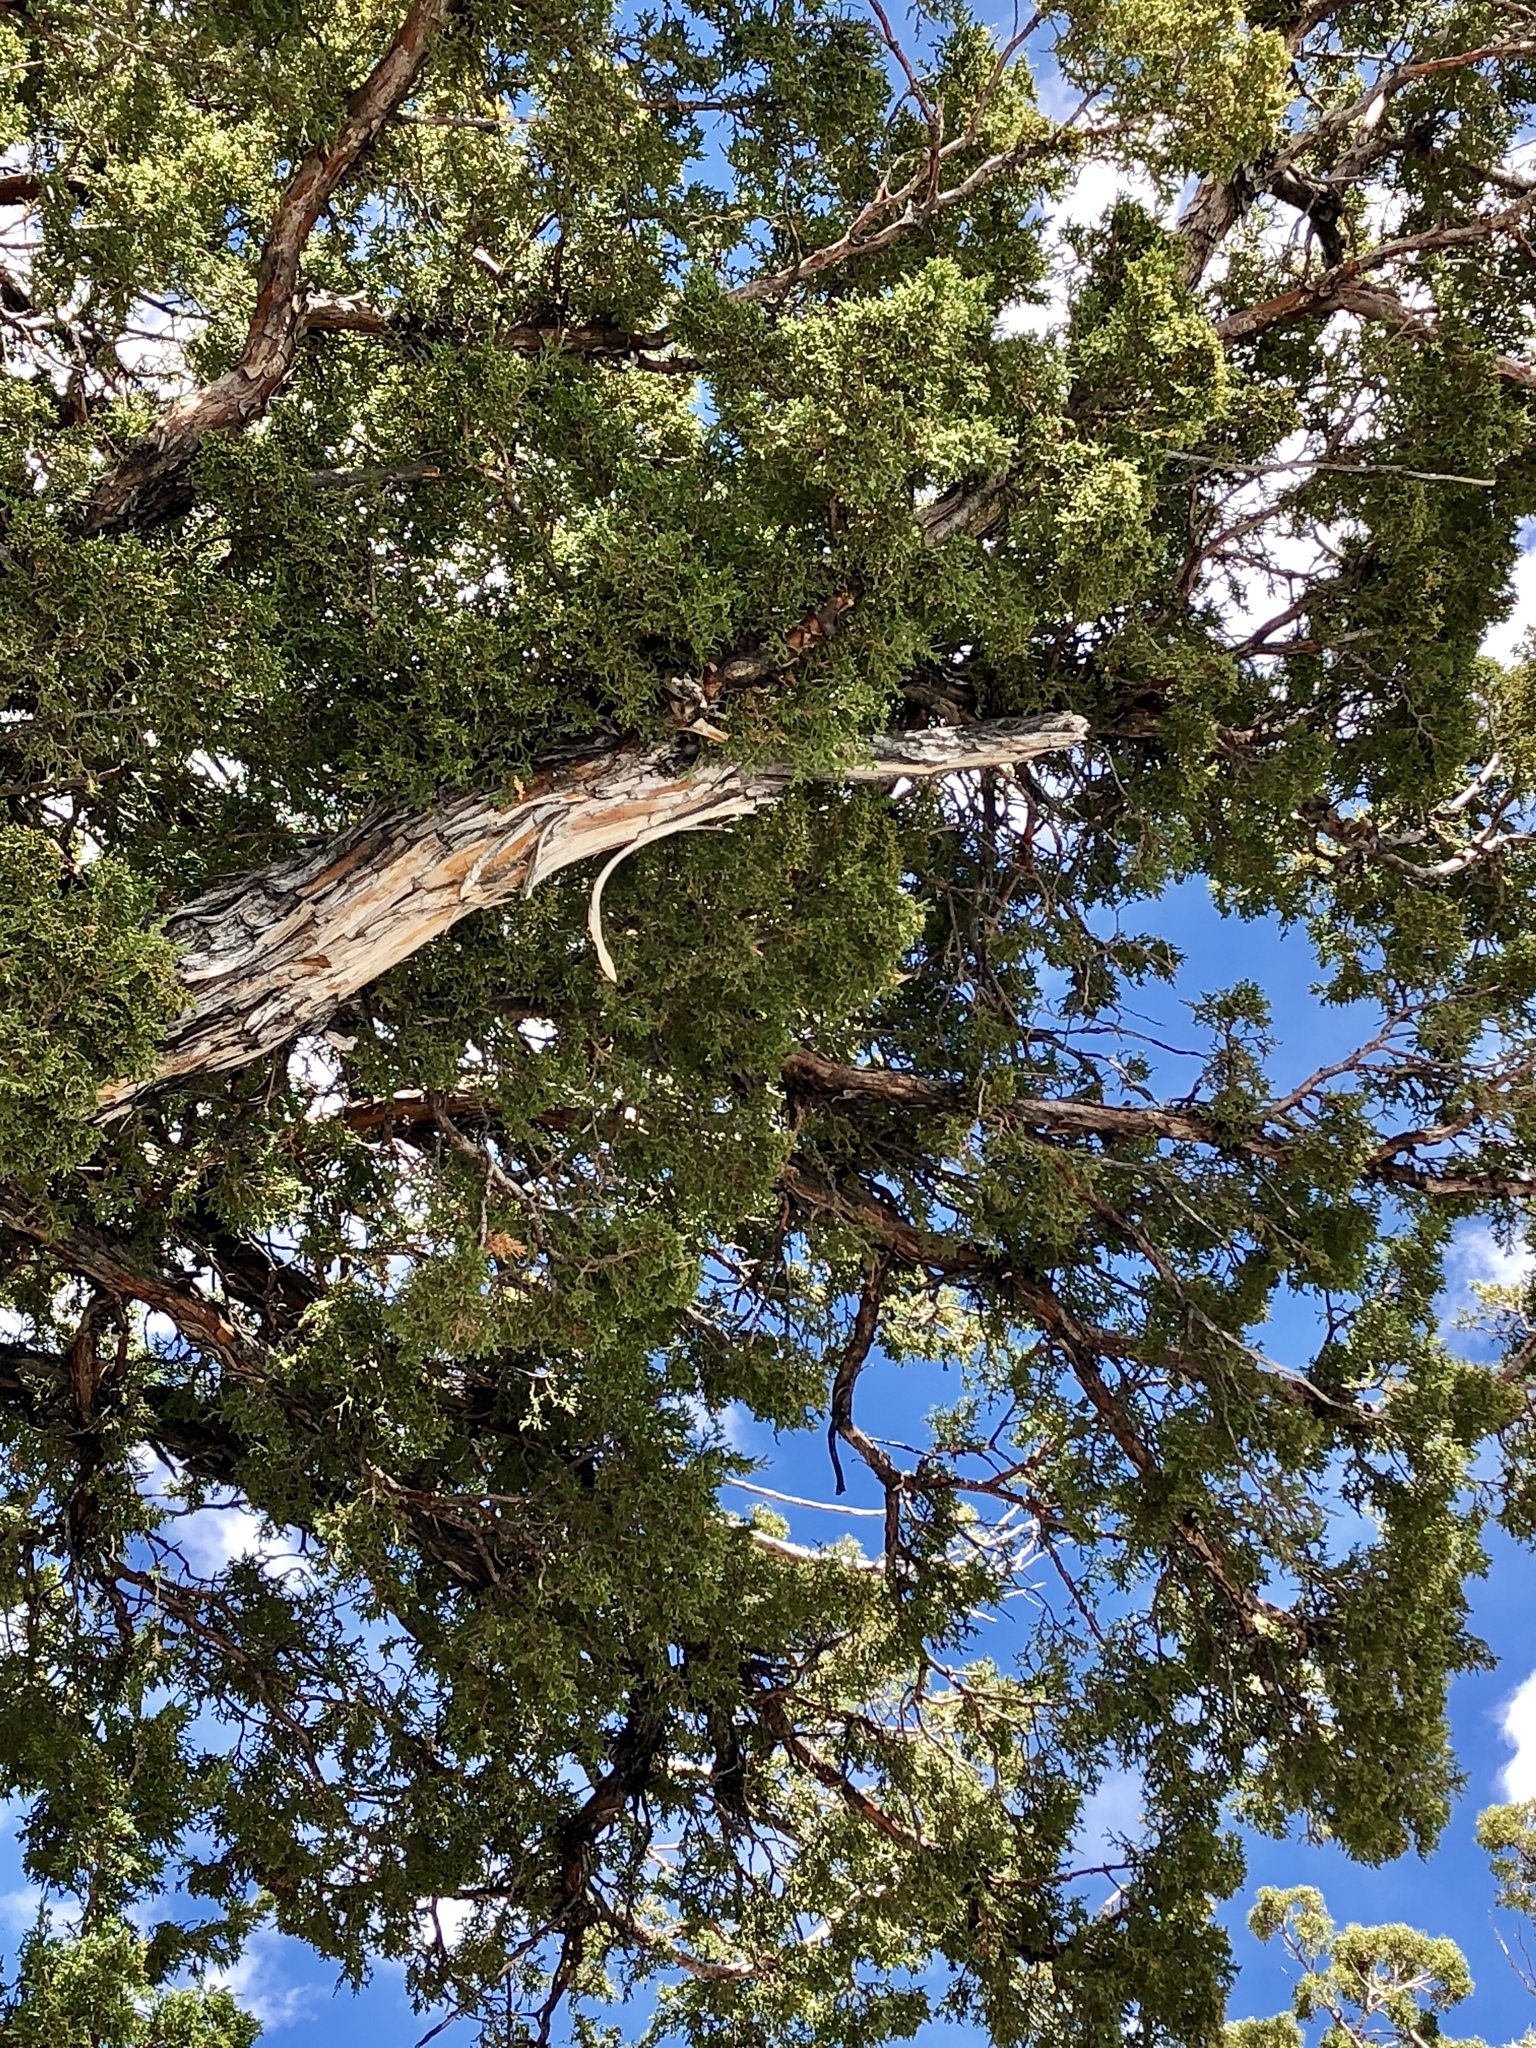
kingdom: Plantae
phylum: Tracheophyta
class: Pinopsida
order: Pinales
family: Cupressaceae
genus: Juniperus
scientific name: Juniperus osteosperma
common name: Utah juniper
